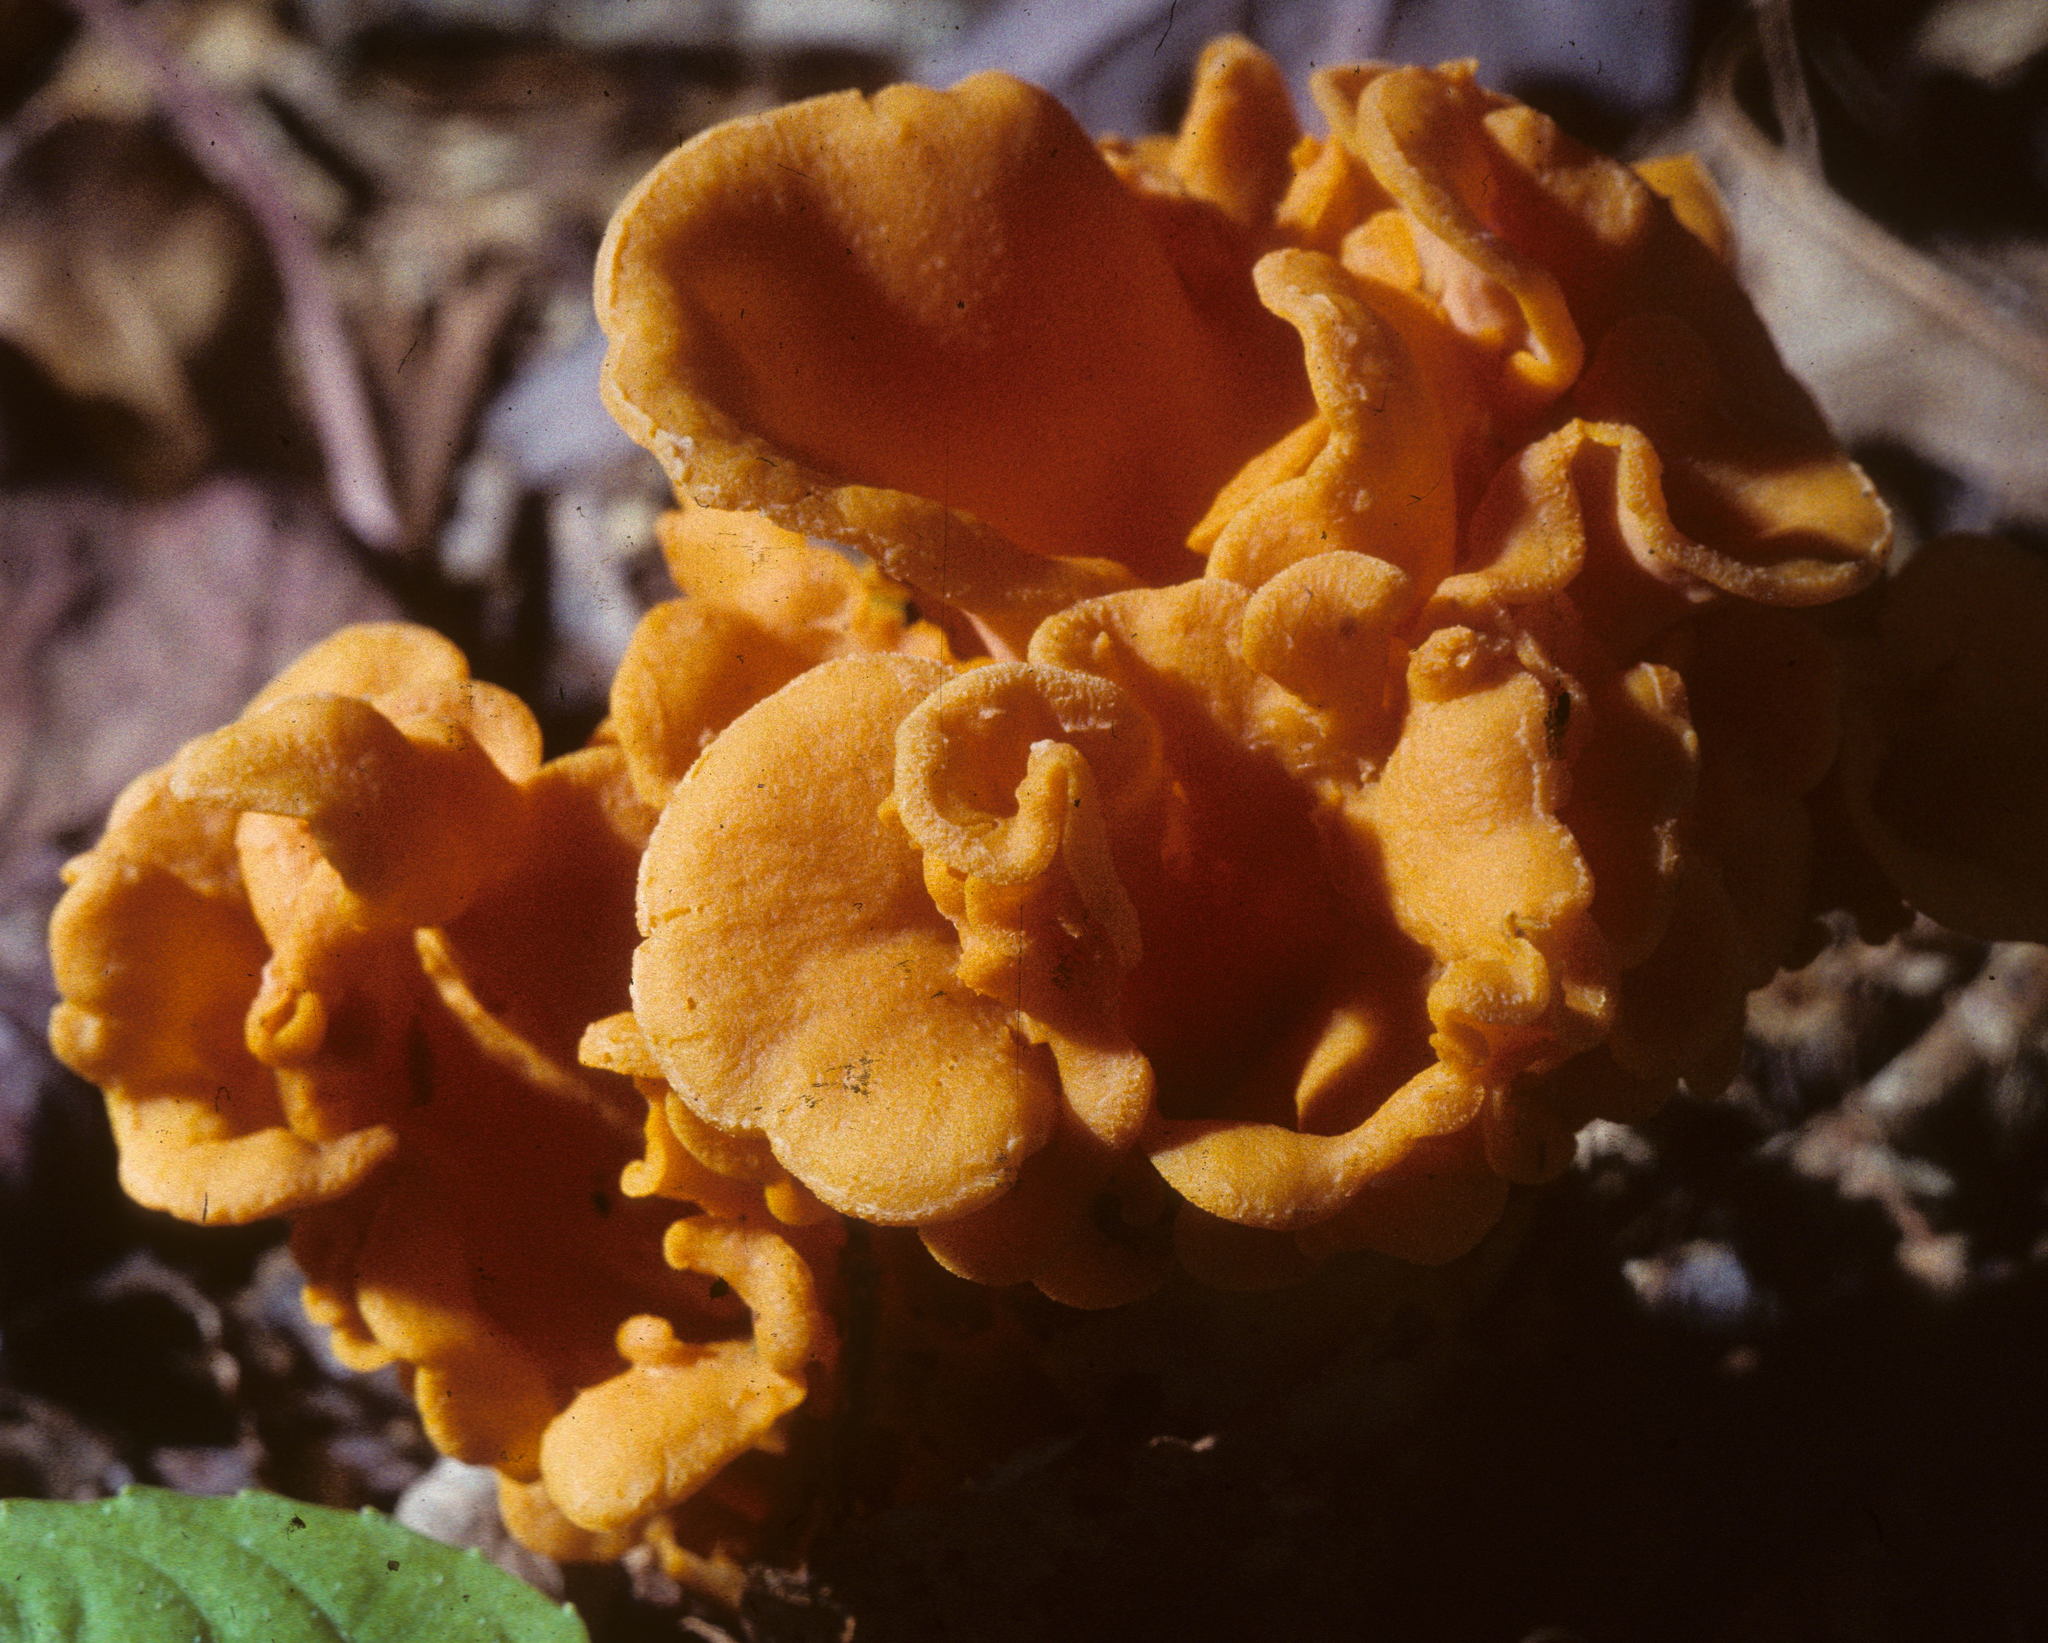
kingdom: Fungi
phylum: Basidiomycota
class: Agaricomycetes
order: Cantharellales
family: Hydnaceae
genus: Cantharellus
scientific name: Cantharellus odoratus
